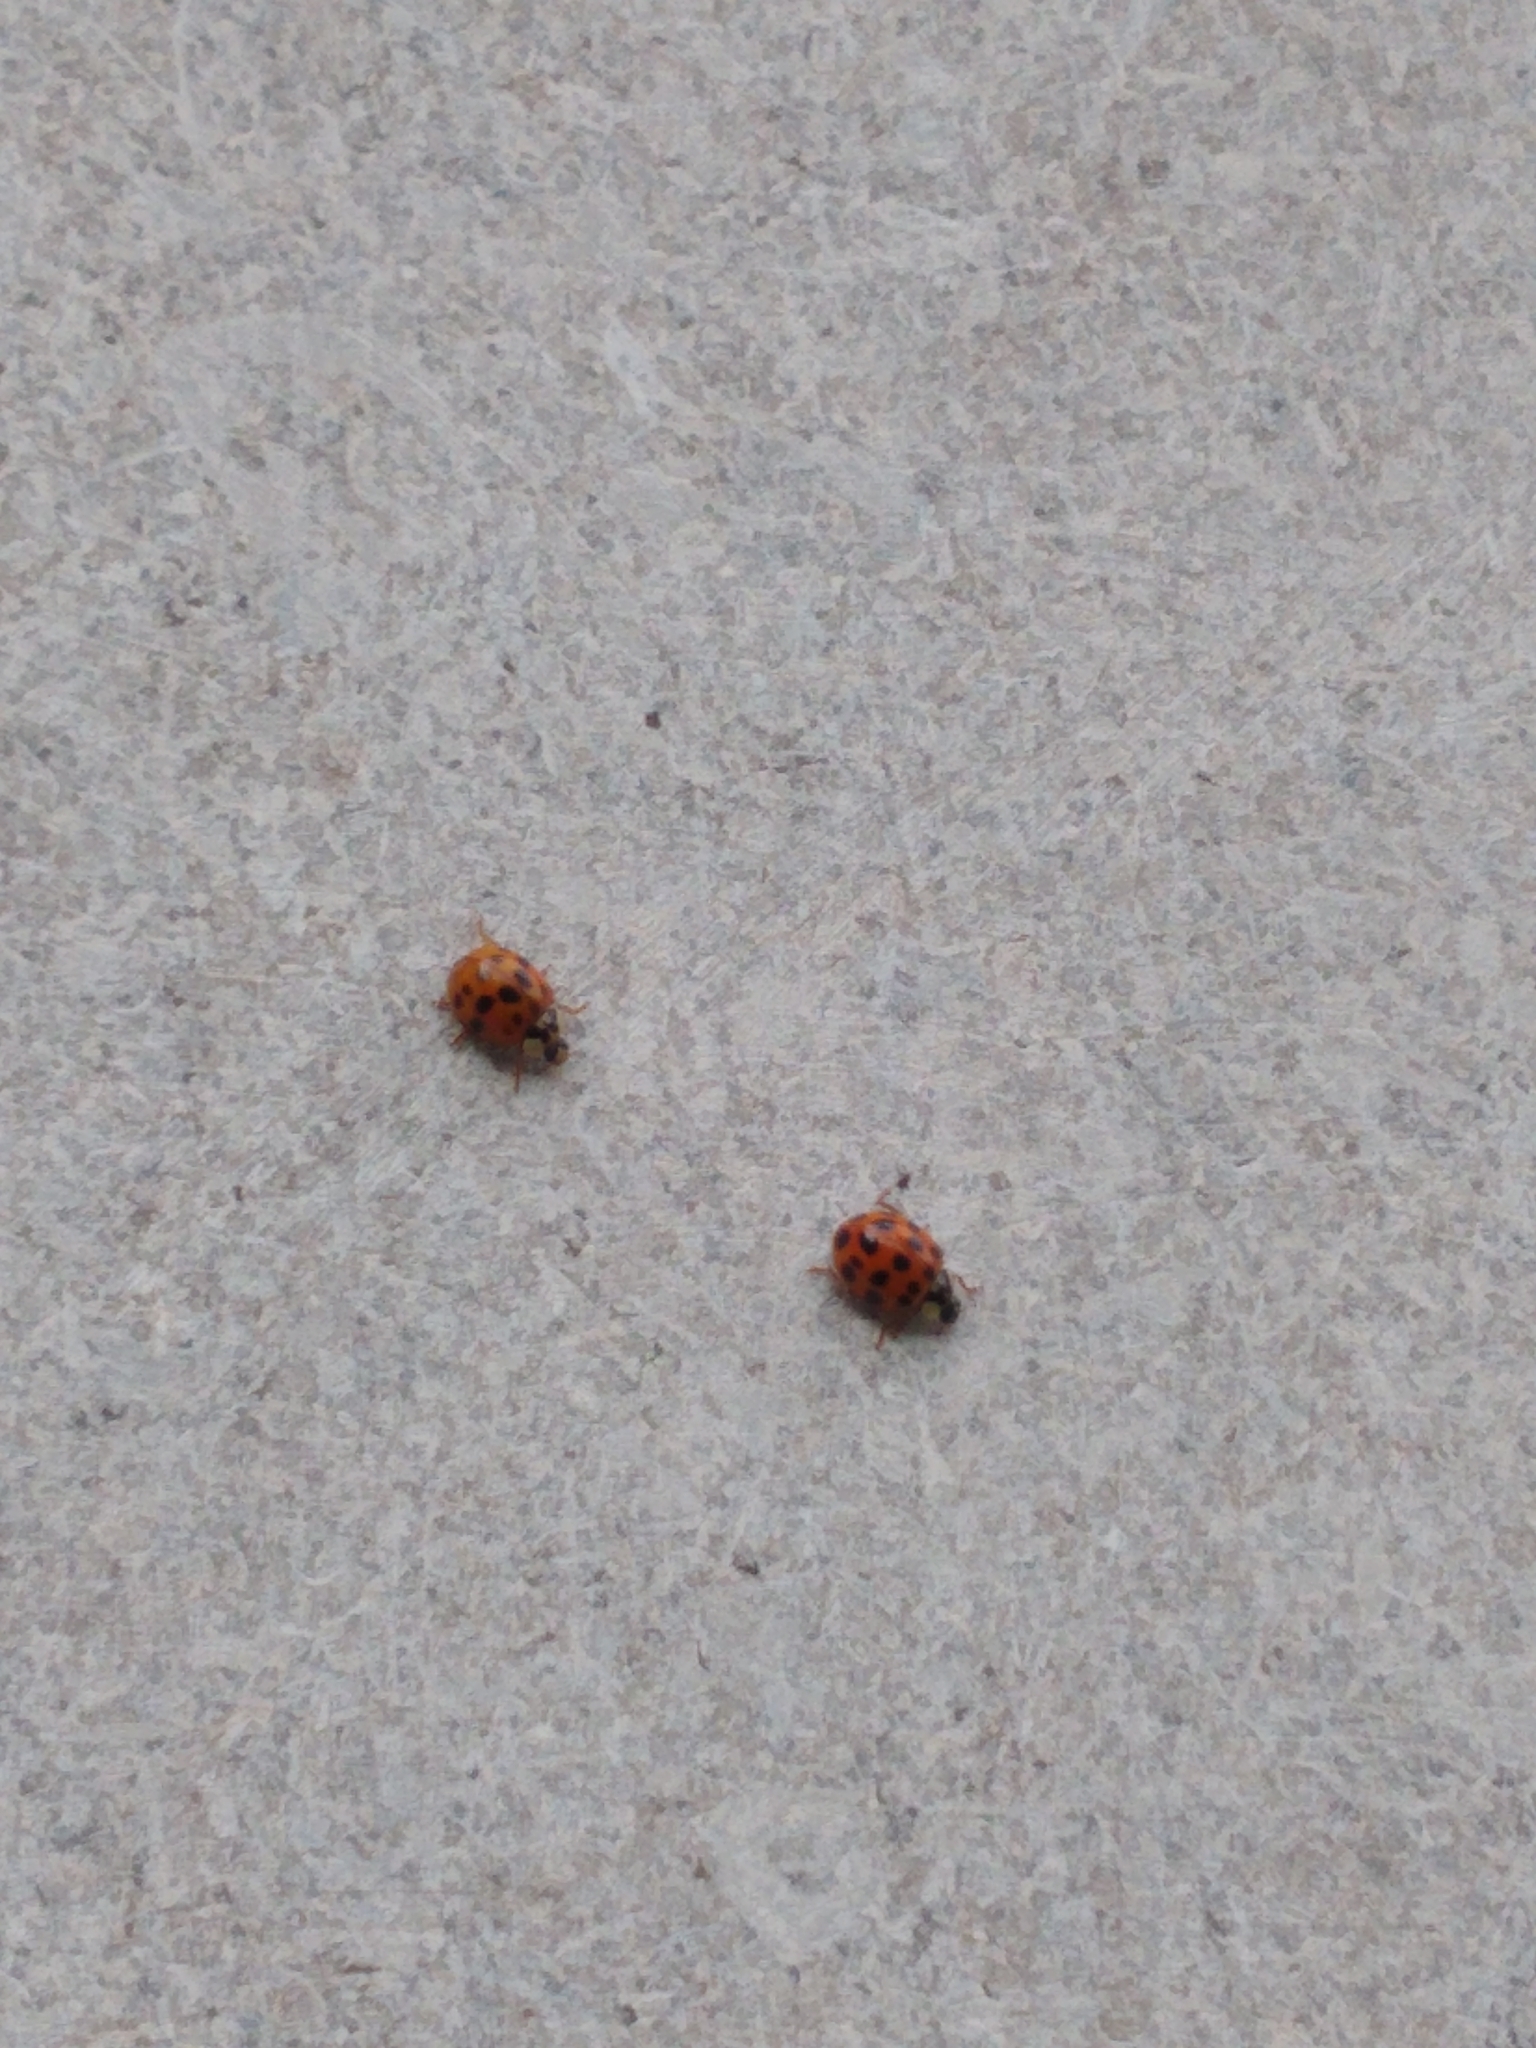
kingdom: Animalia
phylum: Arthropoda
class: Insecta
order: Coleoptera
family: Coccinellidae
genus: Harmonia
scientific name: Harmonia axyridis
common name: Harlequin ladybird
